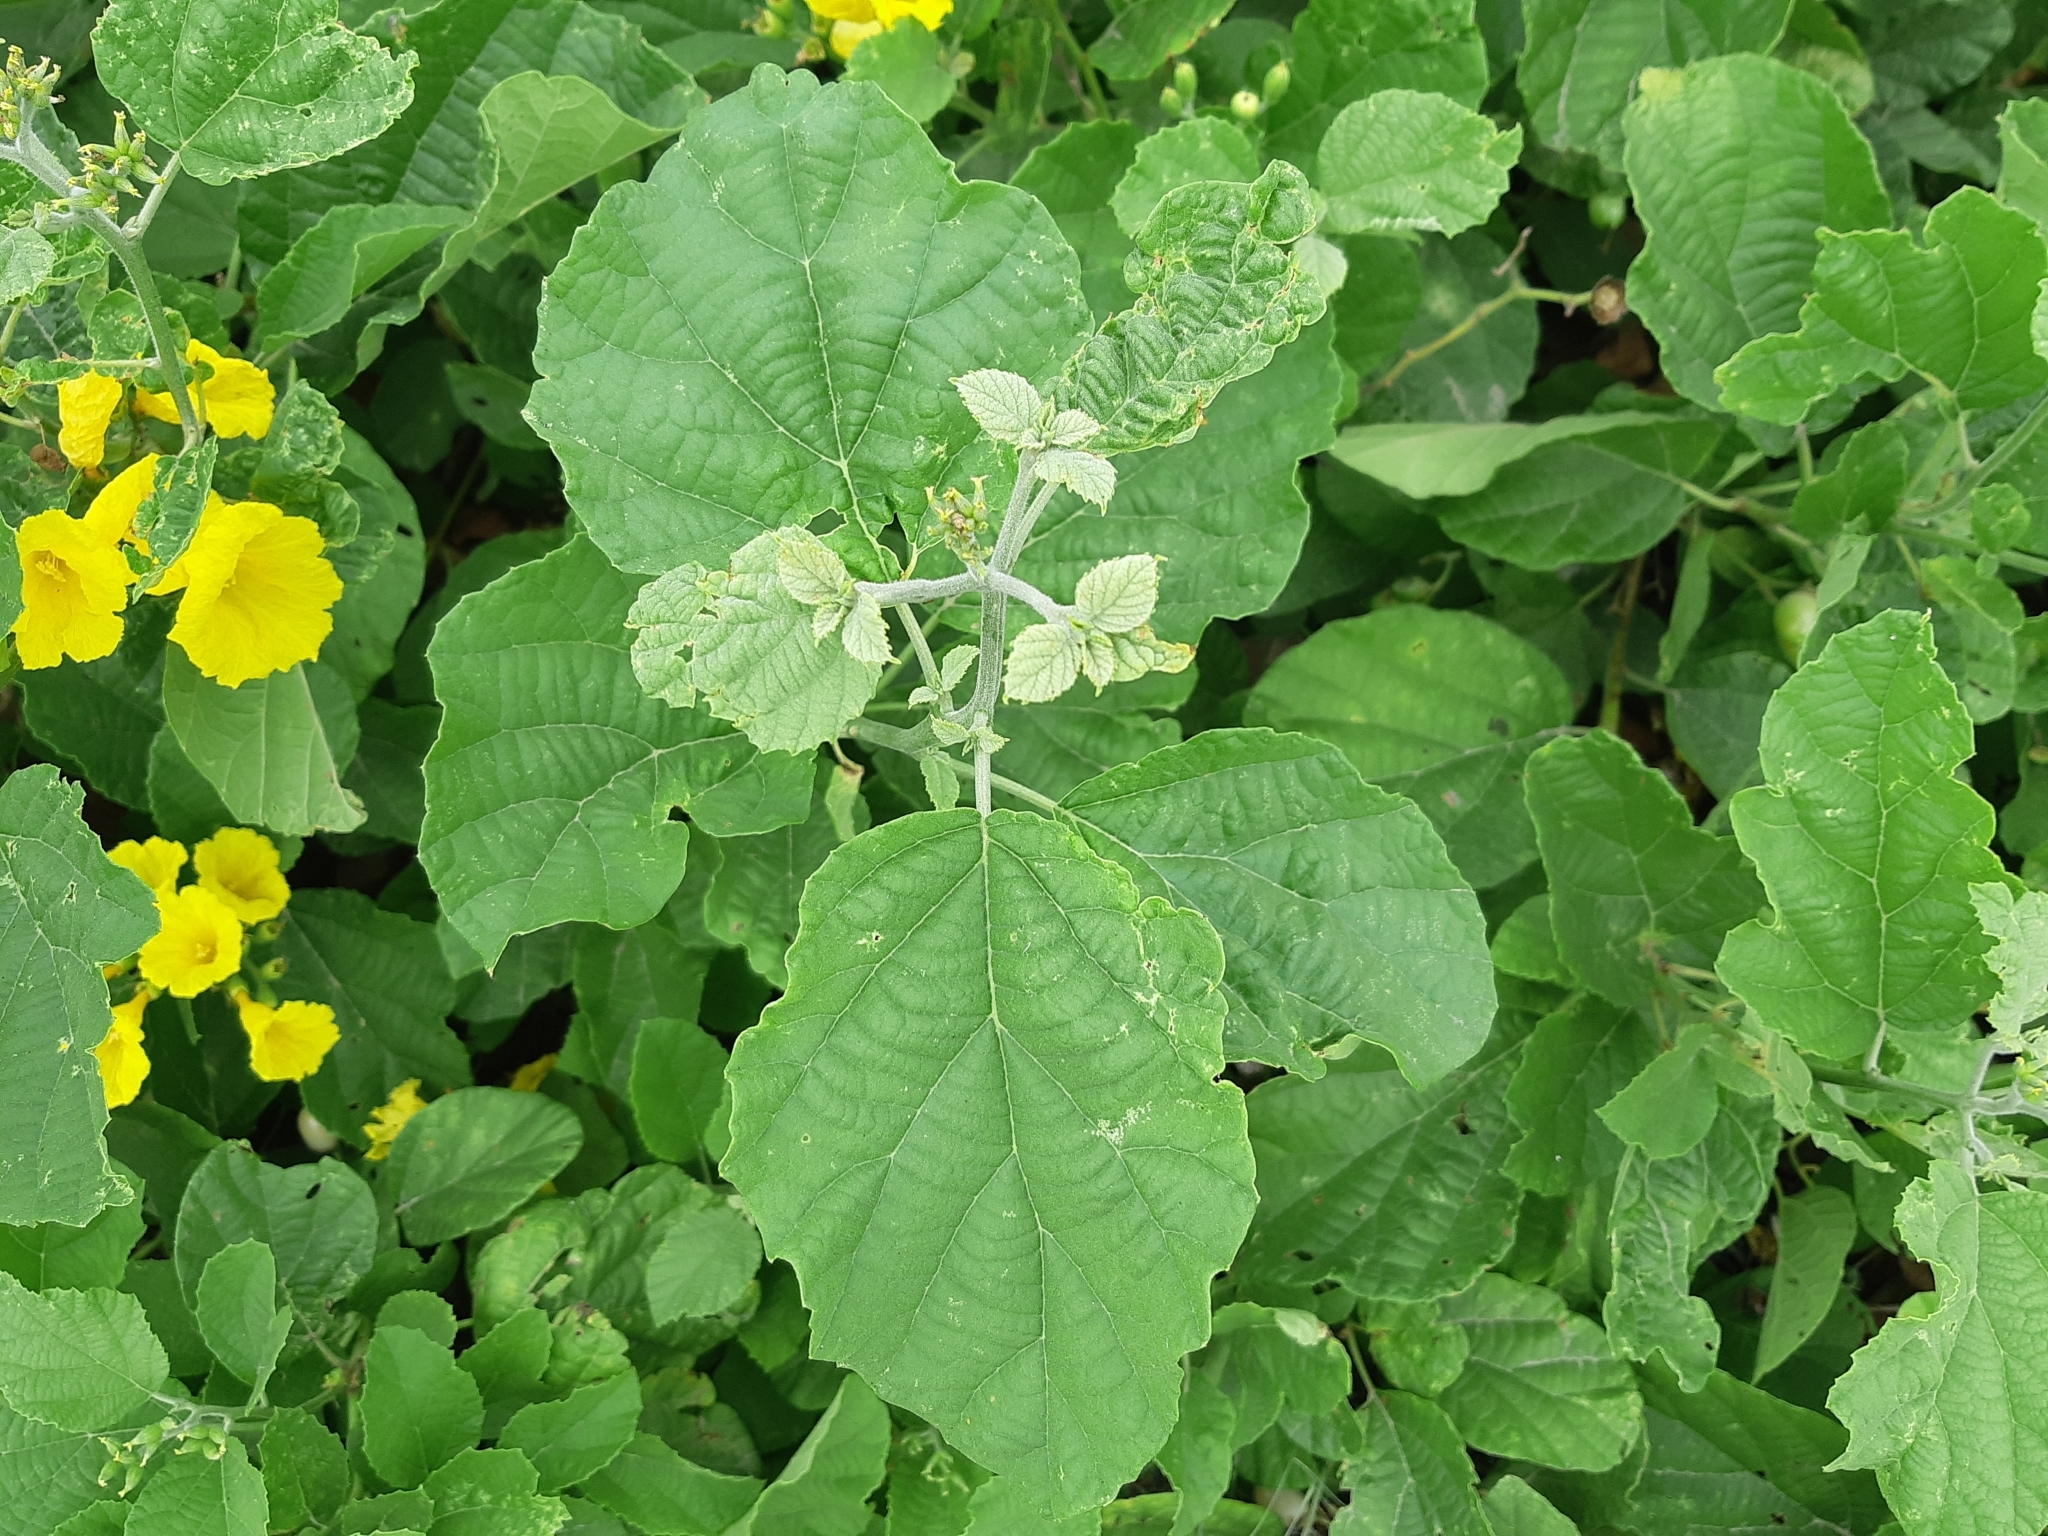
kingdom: Plantae
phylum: Tracheophyta
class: Magnoliopsida
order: Boraginales
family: Cordiaceae
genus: Cordia
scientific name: Cordia lutea
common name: Yellow geiger
